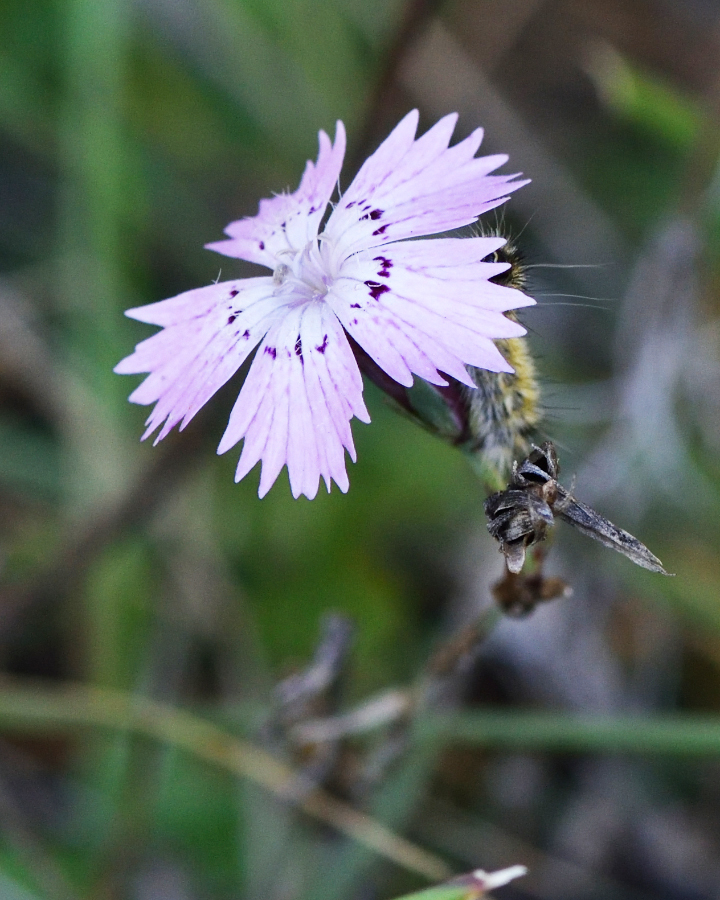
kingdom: Plantae
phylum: Tracheophyta
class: Magnoliopsida
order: Caryophyllales
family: Caryophyllaceae
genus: Dianthus
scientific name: Dianthus chinensis
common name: Rainbow pink
